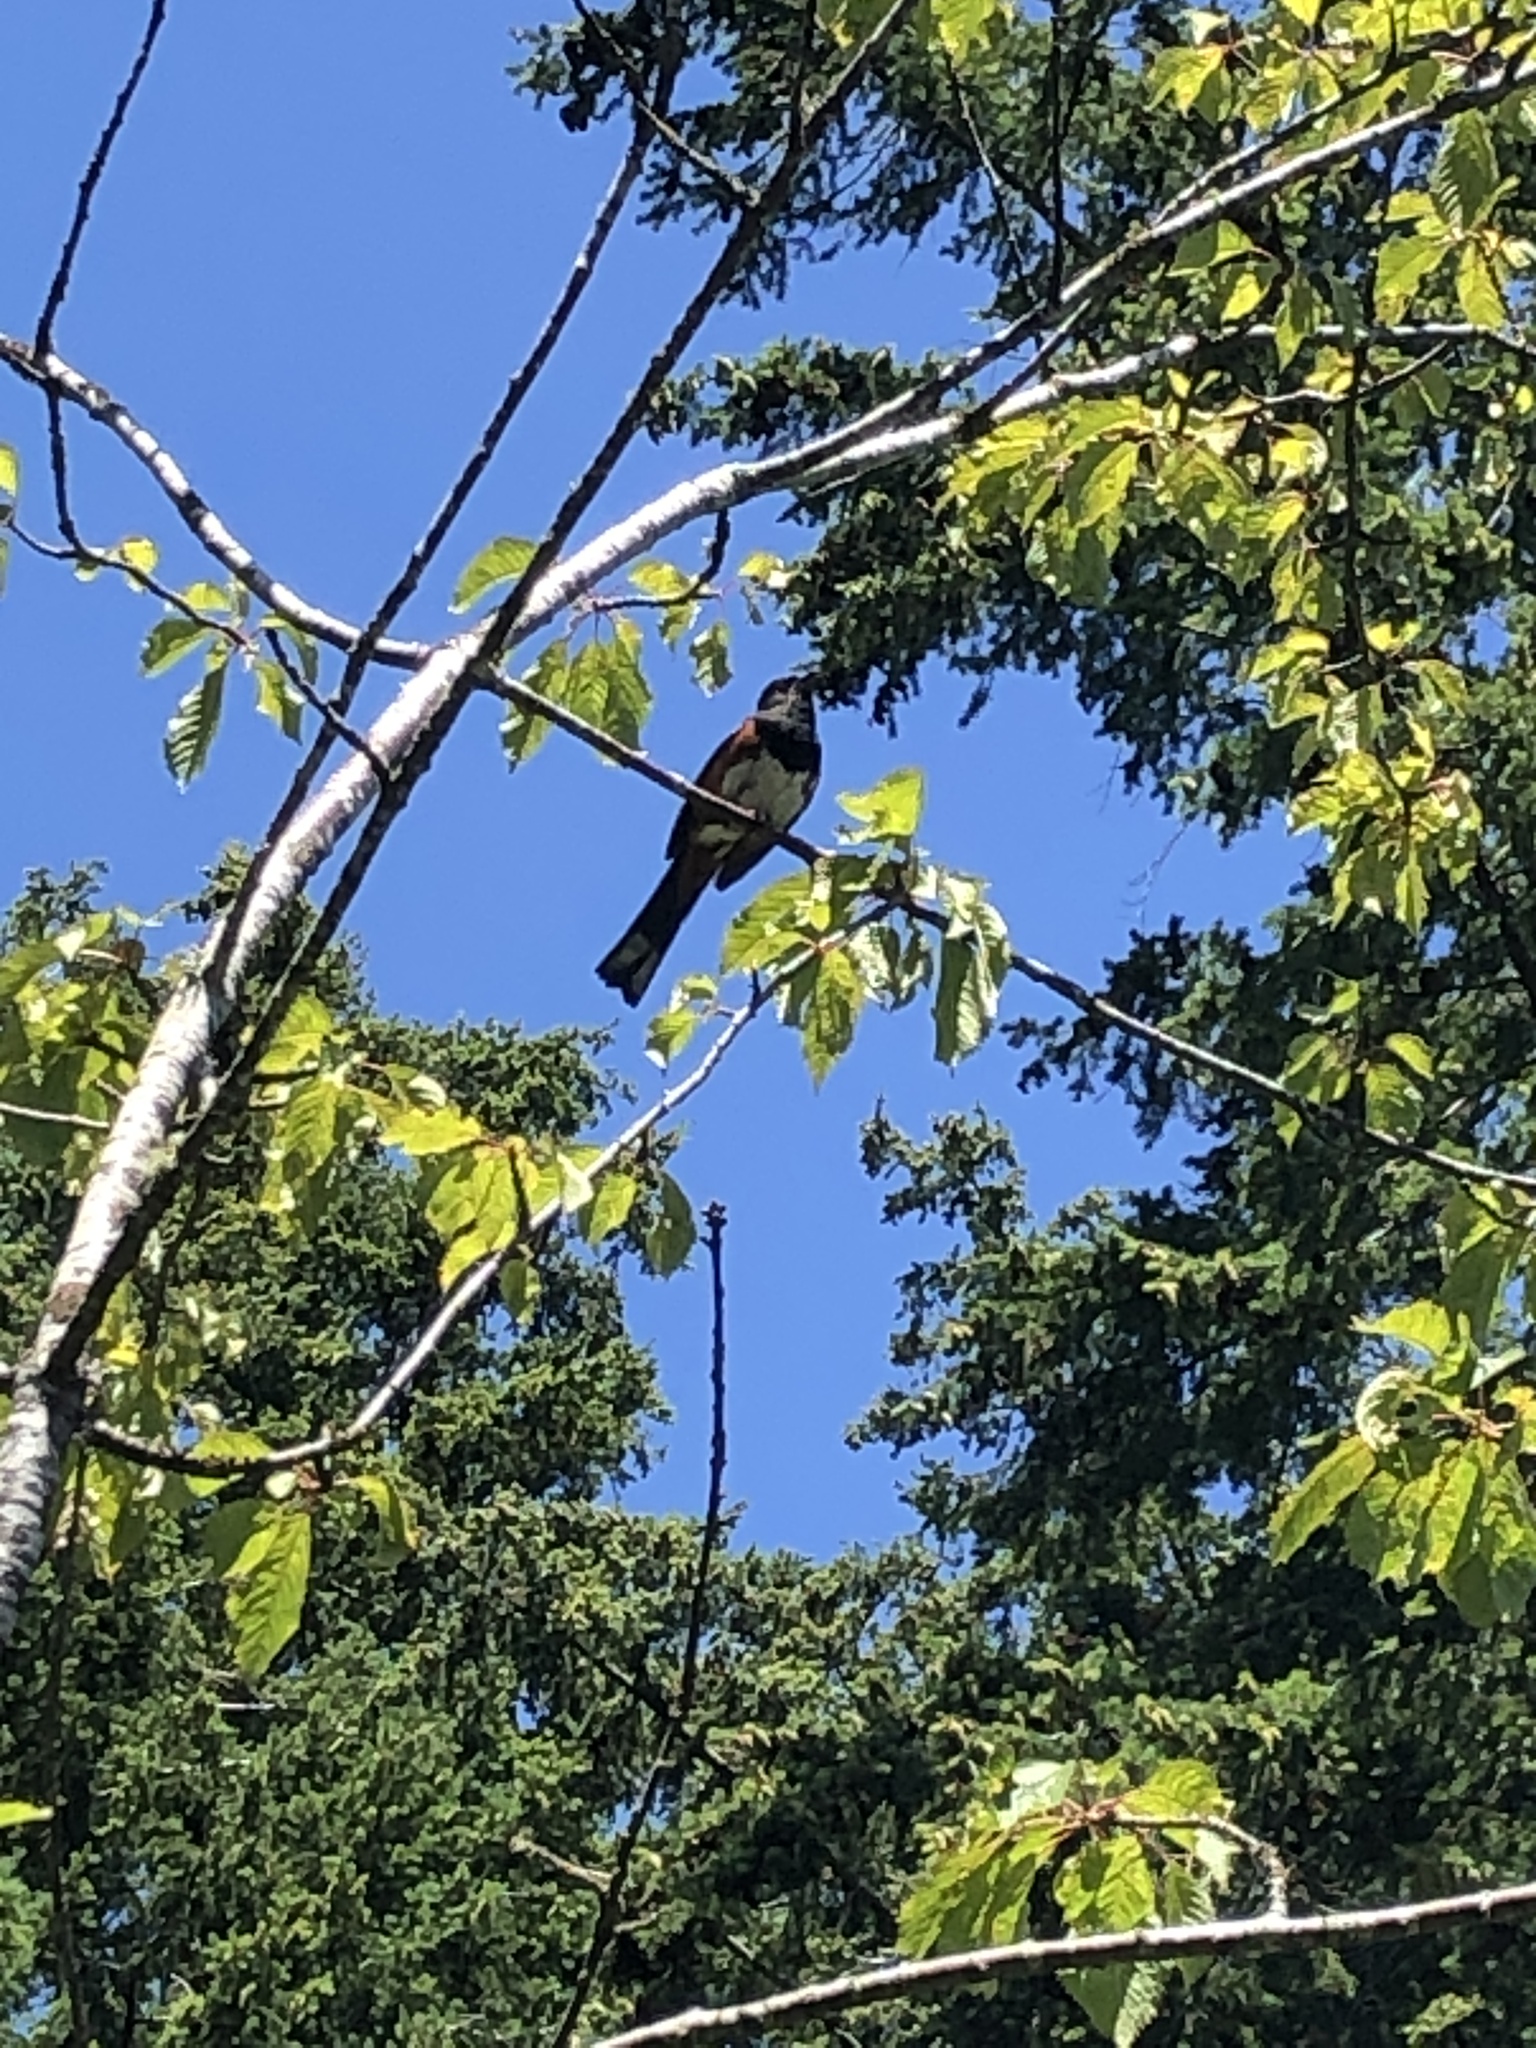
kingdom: Animalia
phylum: Chordata
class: Aves
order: Passeriformes
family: Passerellidae
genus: Pipilo
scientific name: Pipilo maculatus
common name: Spotted towhee
